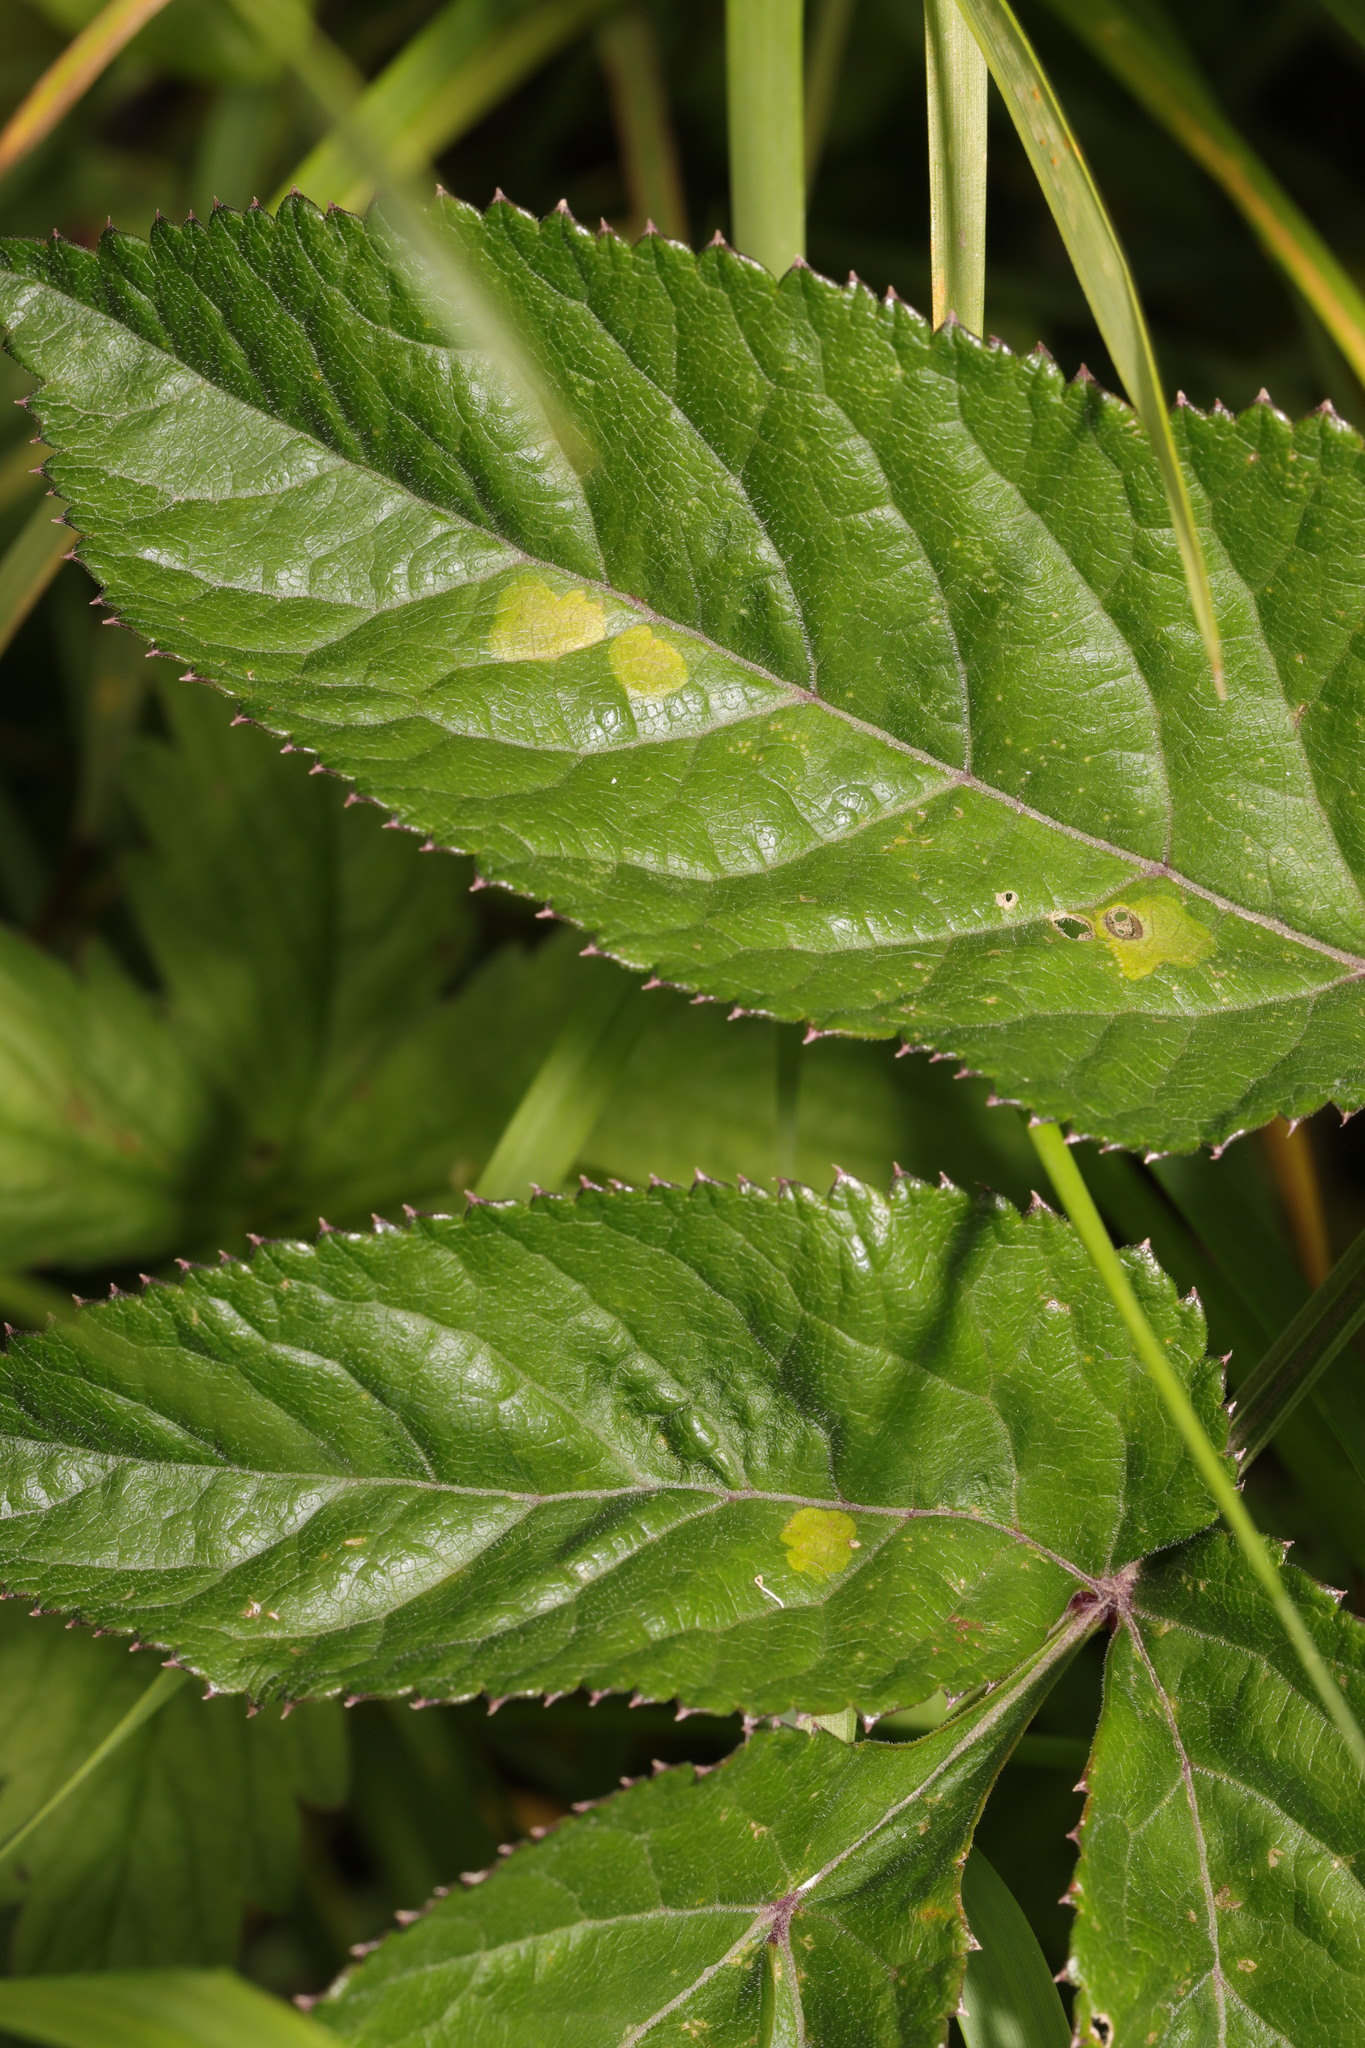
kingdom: Animalia
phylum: Arthropoda
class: Insecta
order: Diptera
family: Agromyzidae
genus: Phytomyza
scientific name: Phytomyza angelicae
